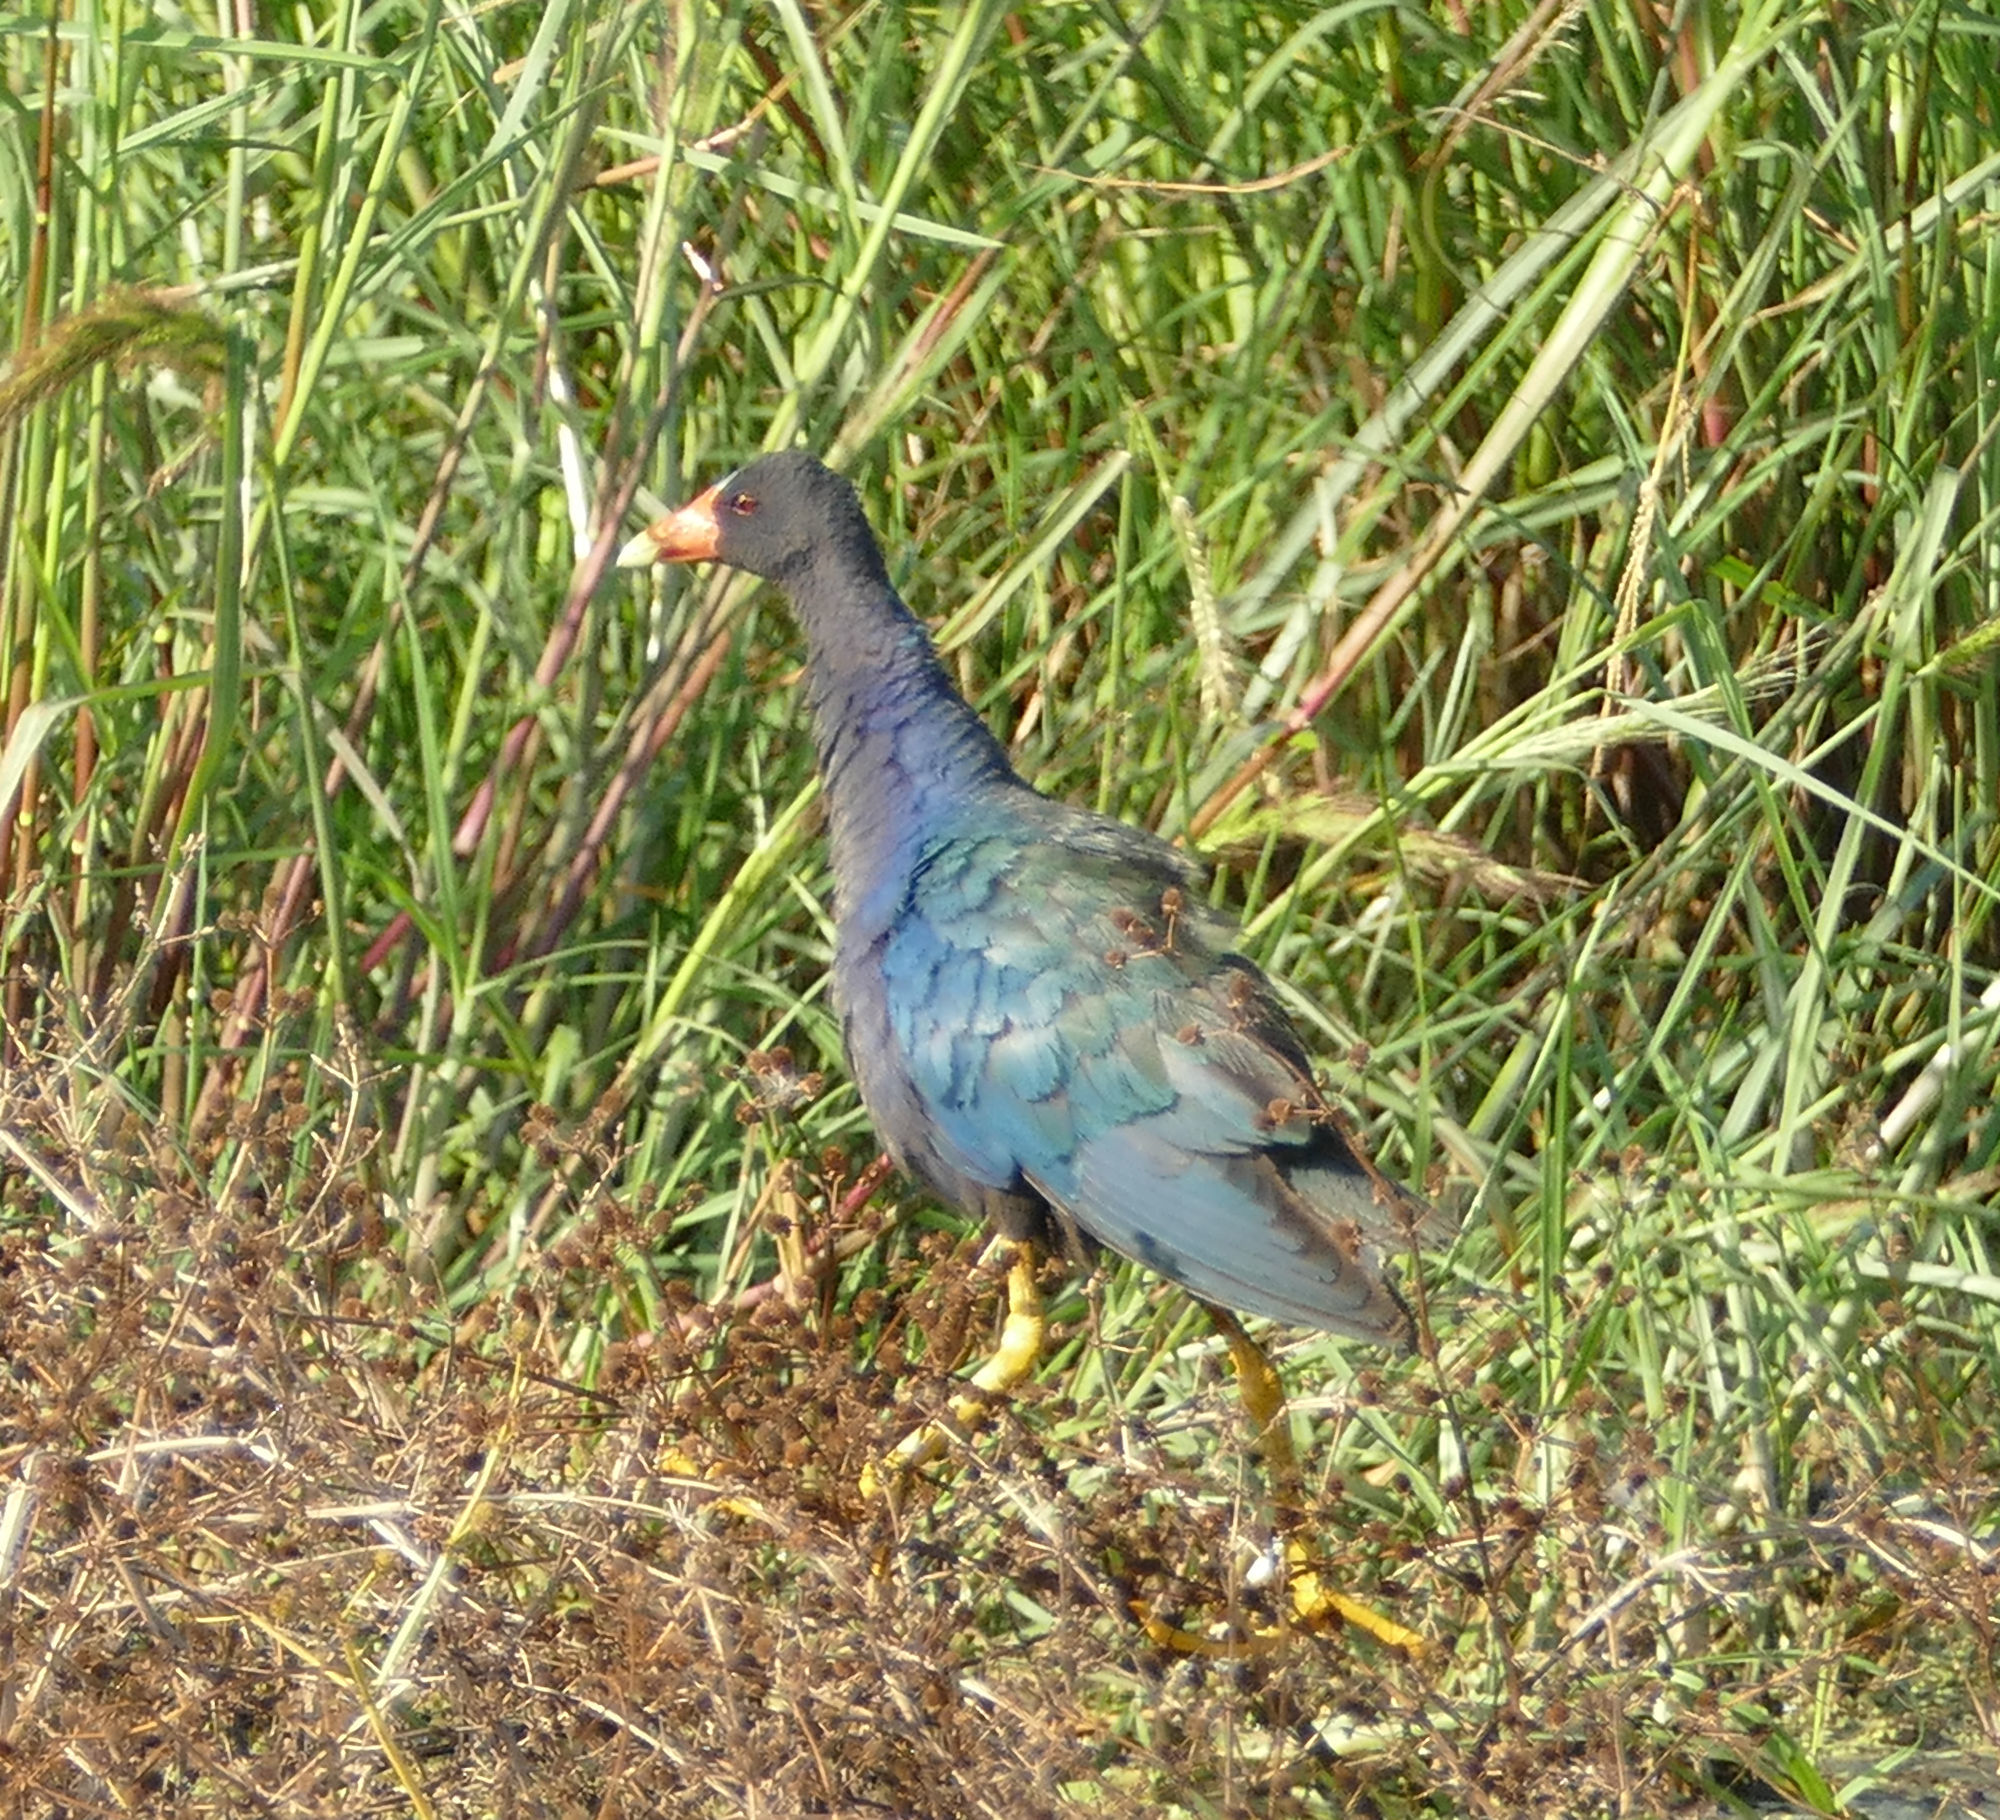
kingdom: Animalia
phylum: Chordata
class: Aves
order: Gruiformes
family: Rallidae
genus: Porphyrio
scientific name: Porphyrio martinica
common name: Purple gallinule
